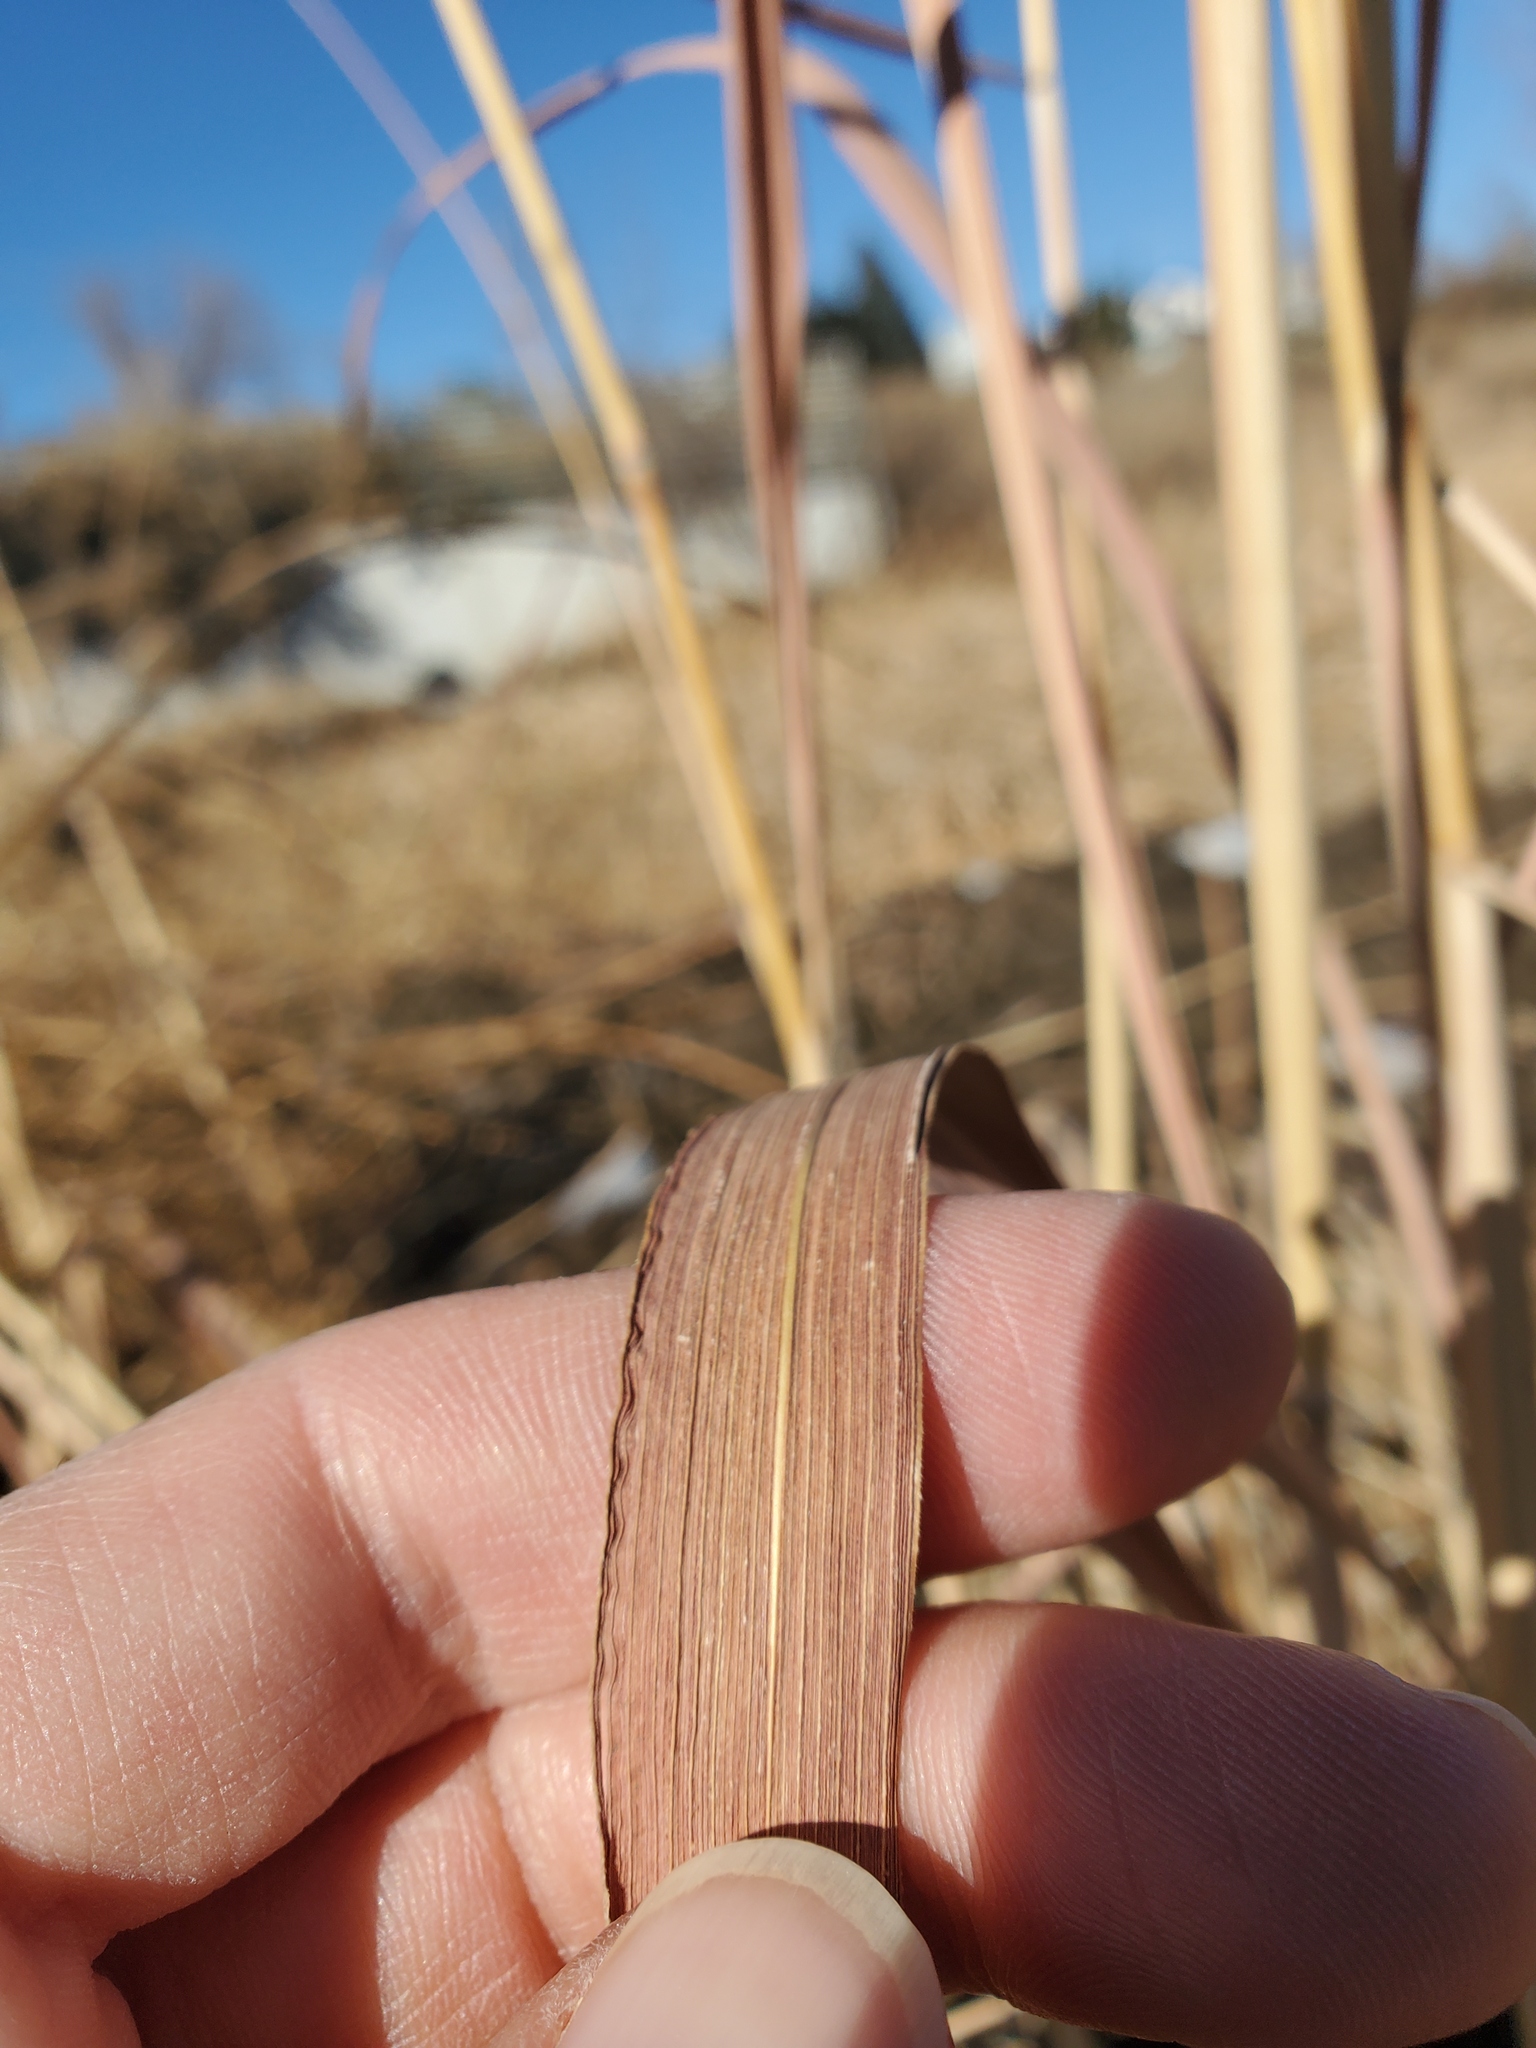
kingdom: Plantae
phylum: Tracheophyta
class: Liliopsida
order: Poales
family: Poaceae
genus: Sorghastrum
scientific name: Sorghastrum nutans
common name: Indian grass
